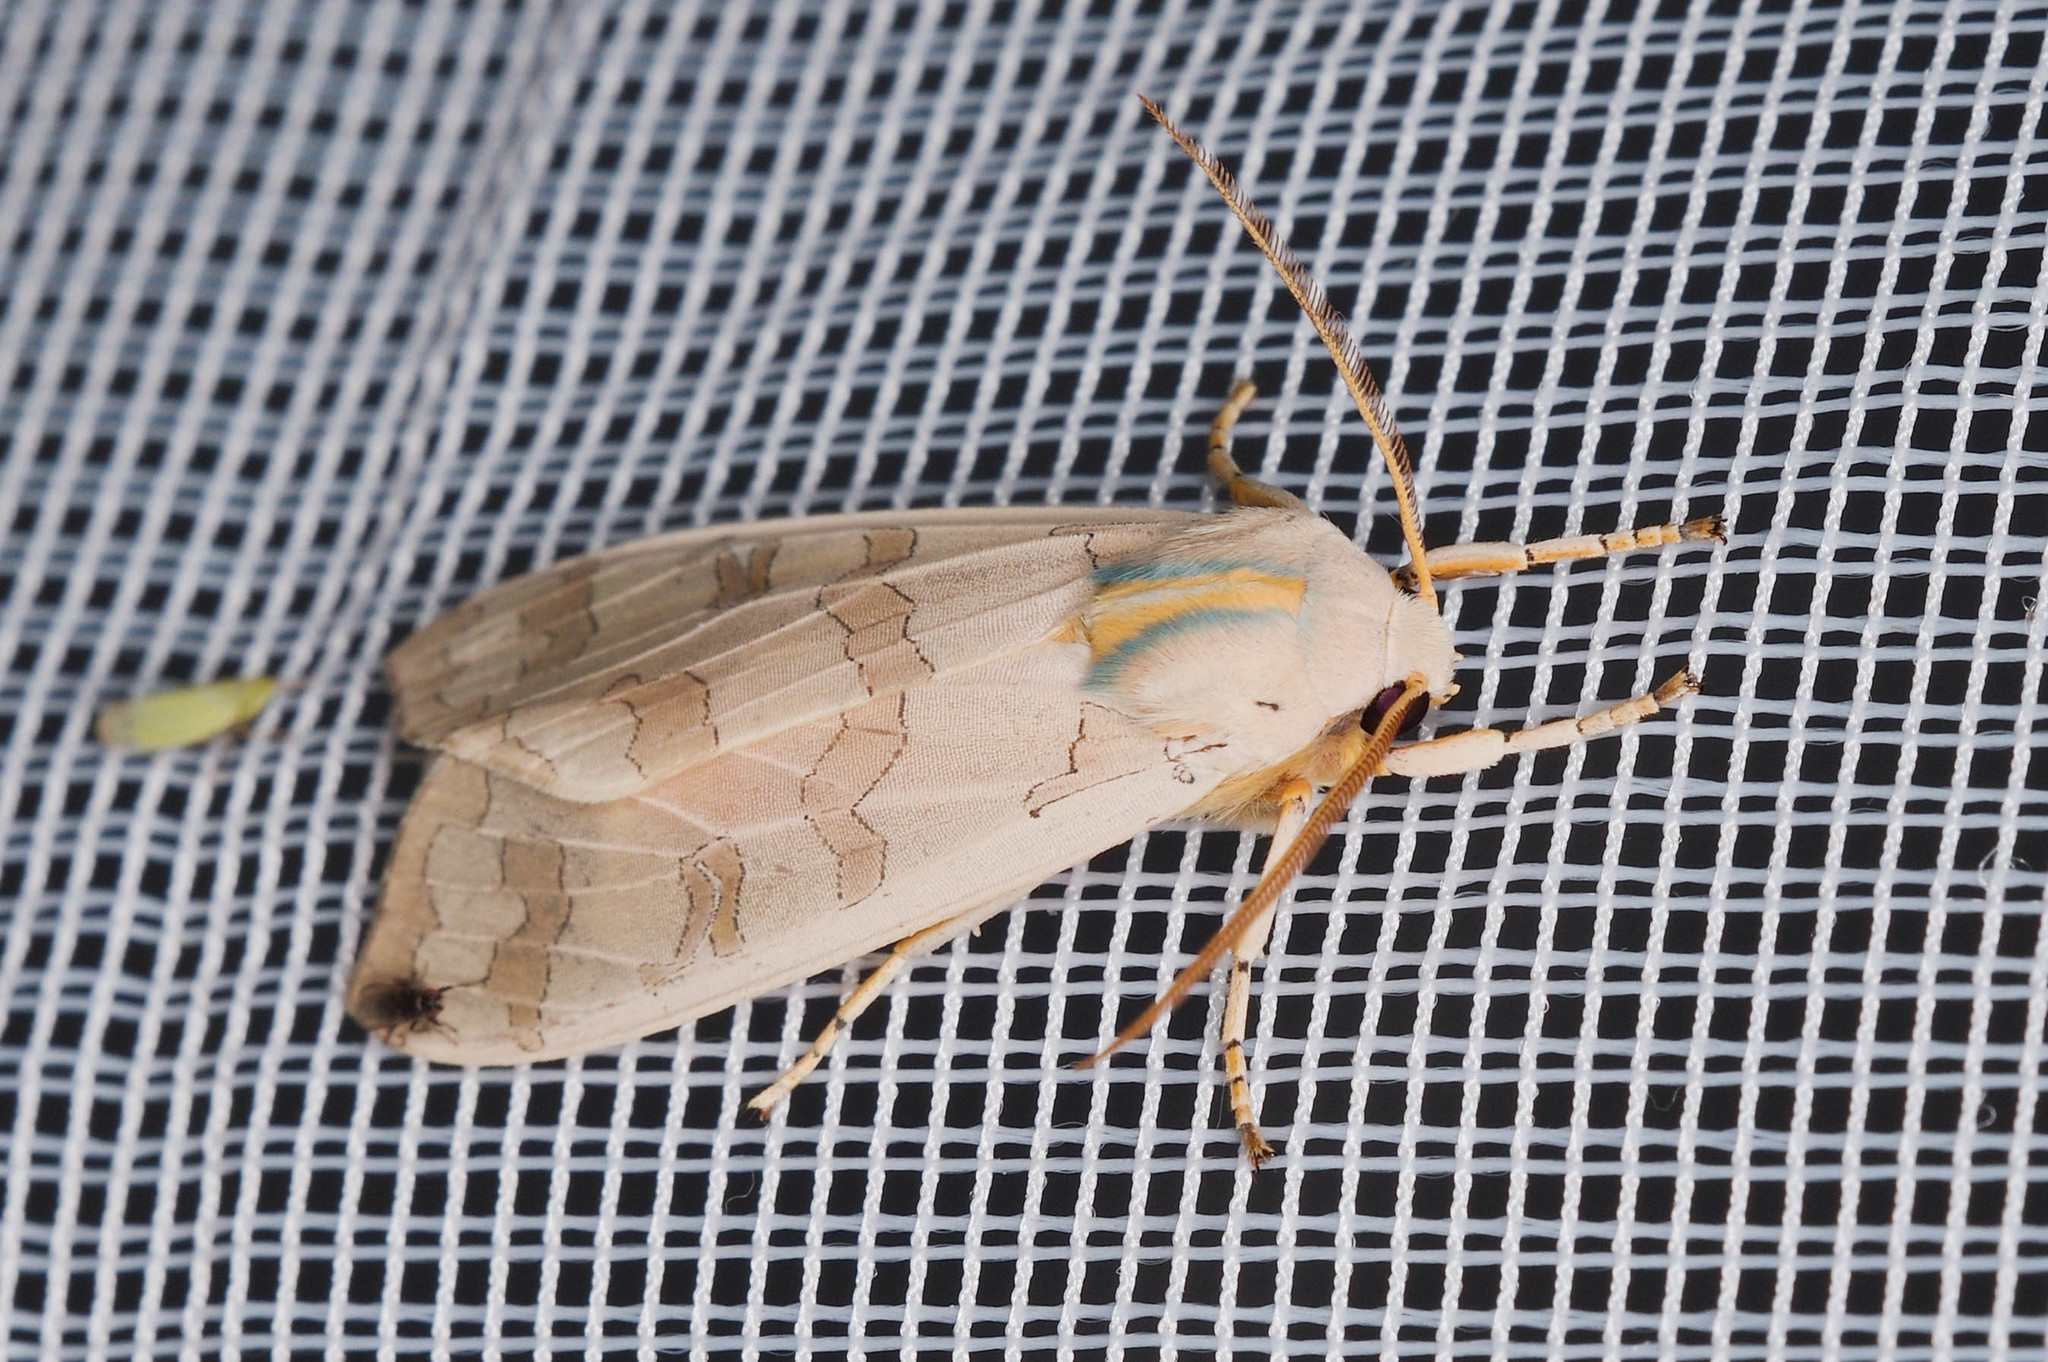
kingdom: Animalia
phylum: Arthropoda
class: Insecta
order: Lepidoptera
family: Erebidae
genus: Halysidota
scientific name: Halysidota
